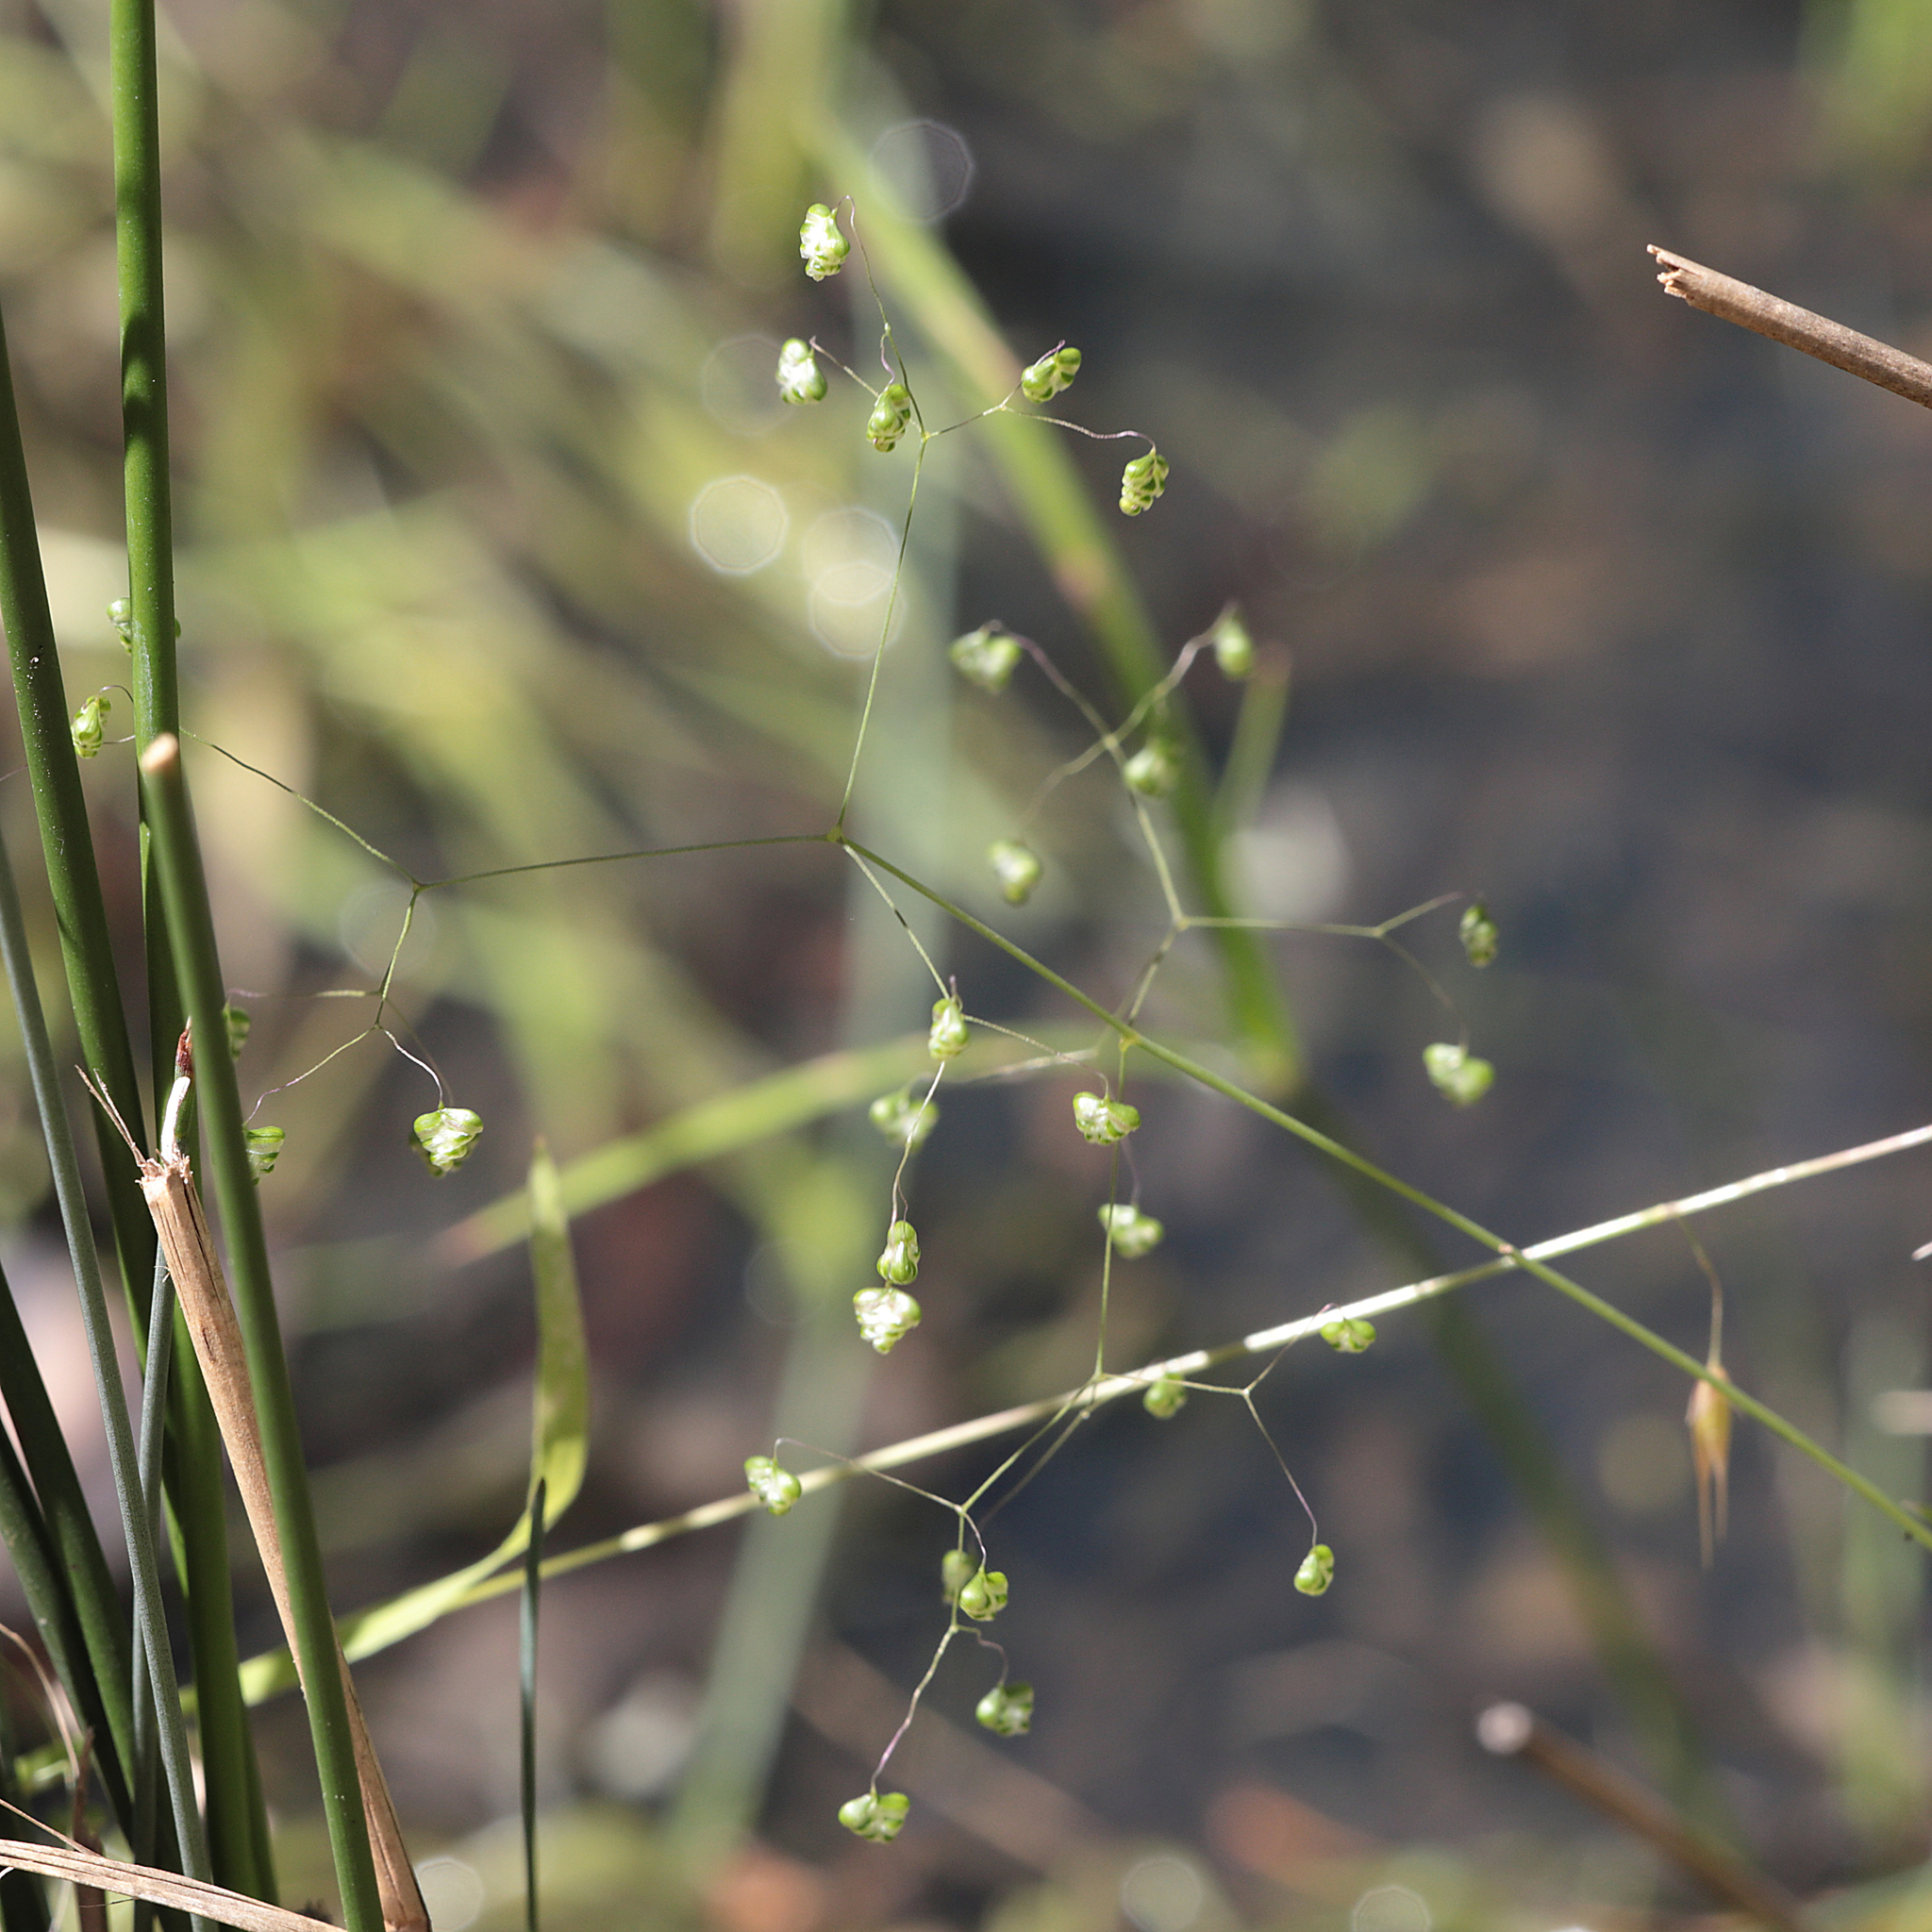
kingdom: Plantae
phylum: Tracheophyta
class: Liliopsida
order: Poales
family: Poaceae
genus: Briza
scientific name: Briza minor
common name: Lesser quaking-grass
